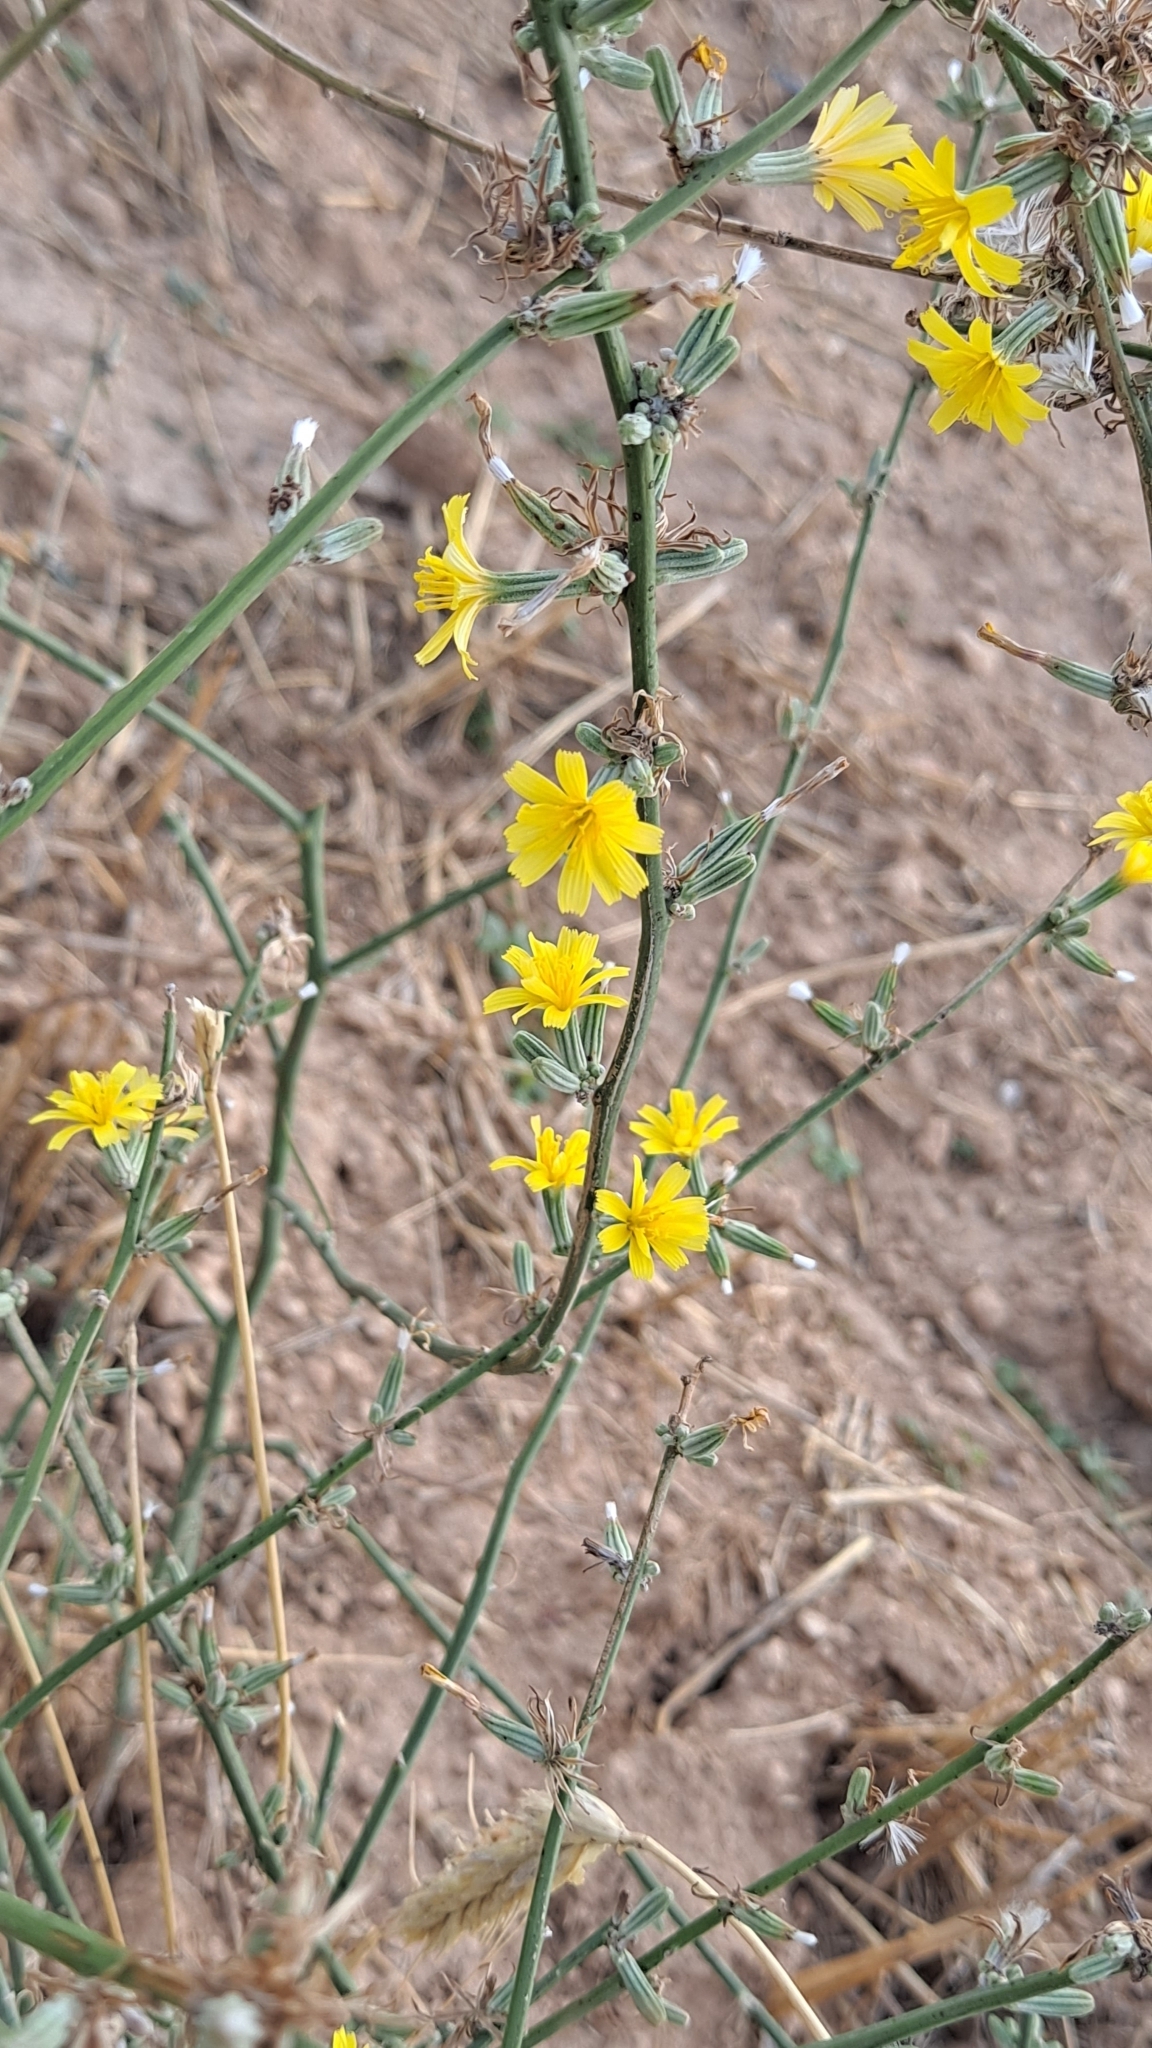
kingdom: Plantae
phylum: Tracheophyta
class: Magnoliopsida
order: Asterales
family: Asteraceae
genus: Chondrilla
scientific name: Chondrilla juncea
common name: Skeleton weed
